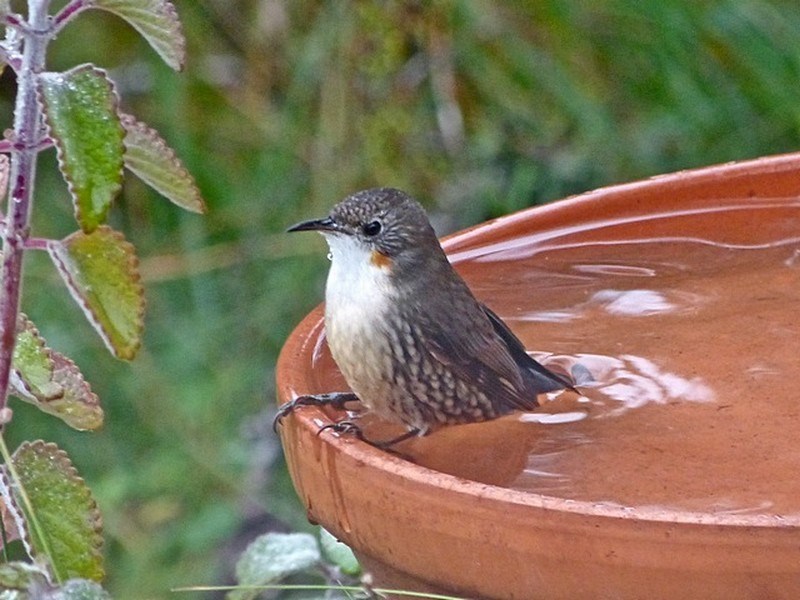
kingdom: Animalia
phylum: Chordata
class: Aves
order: Passeriformes
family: Climacteridae
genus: Cormobates
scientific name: Cormobates leucophaea
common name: White-throated treecreeper
